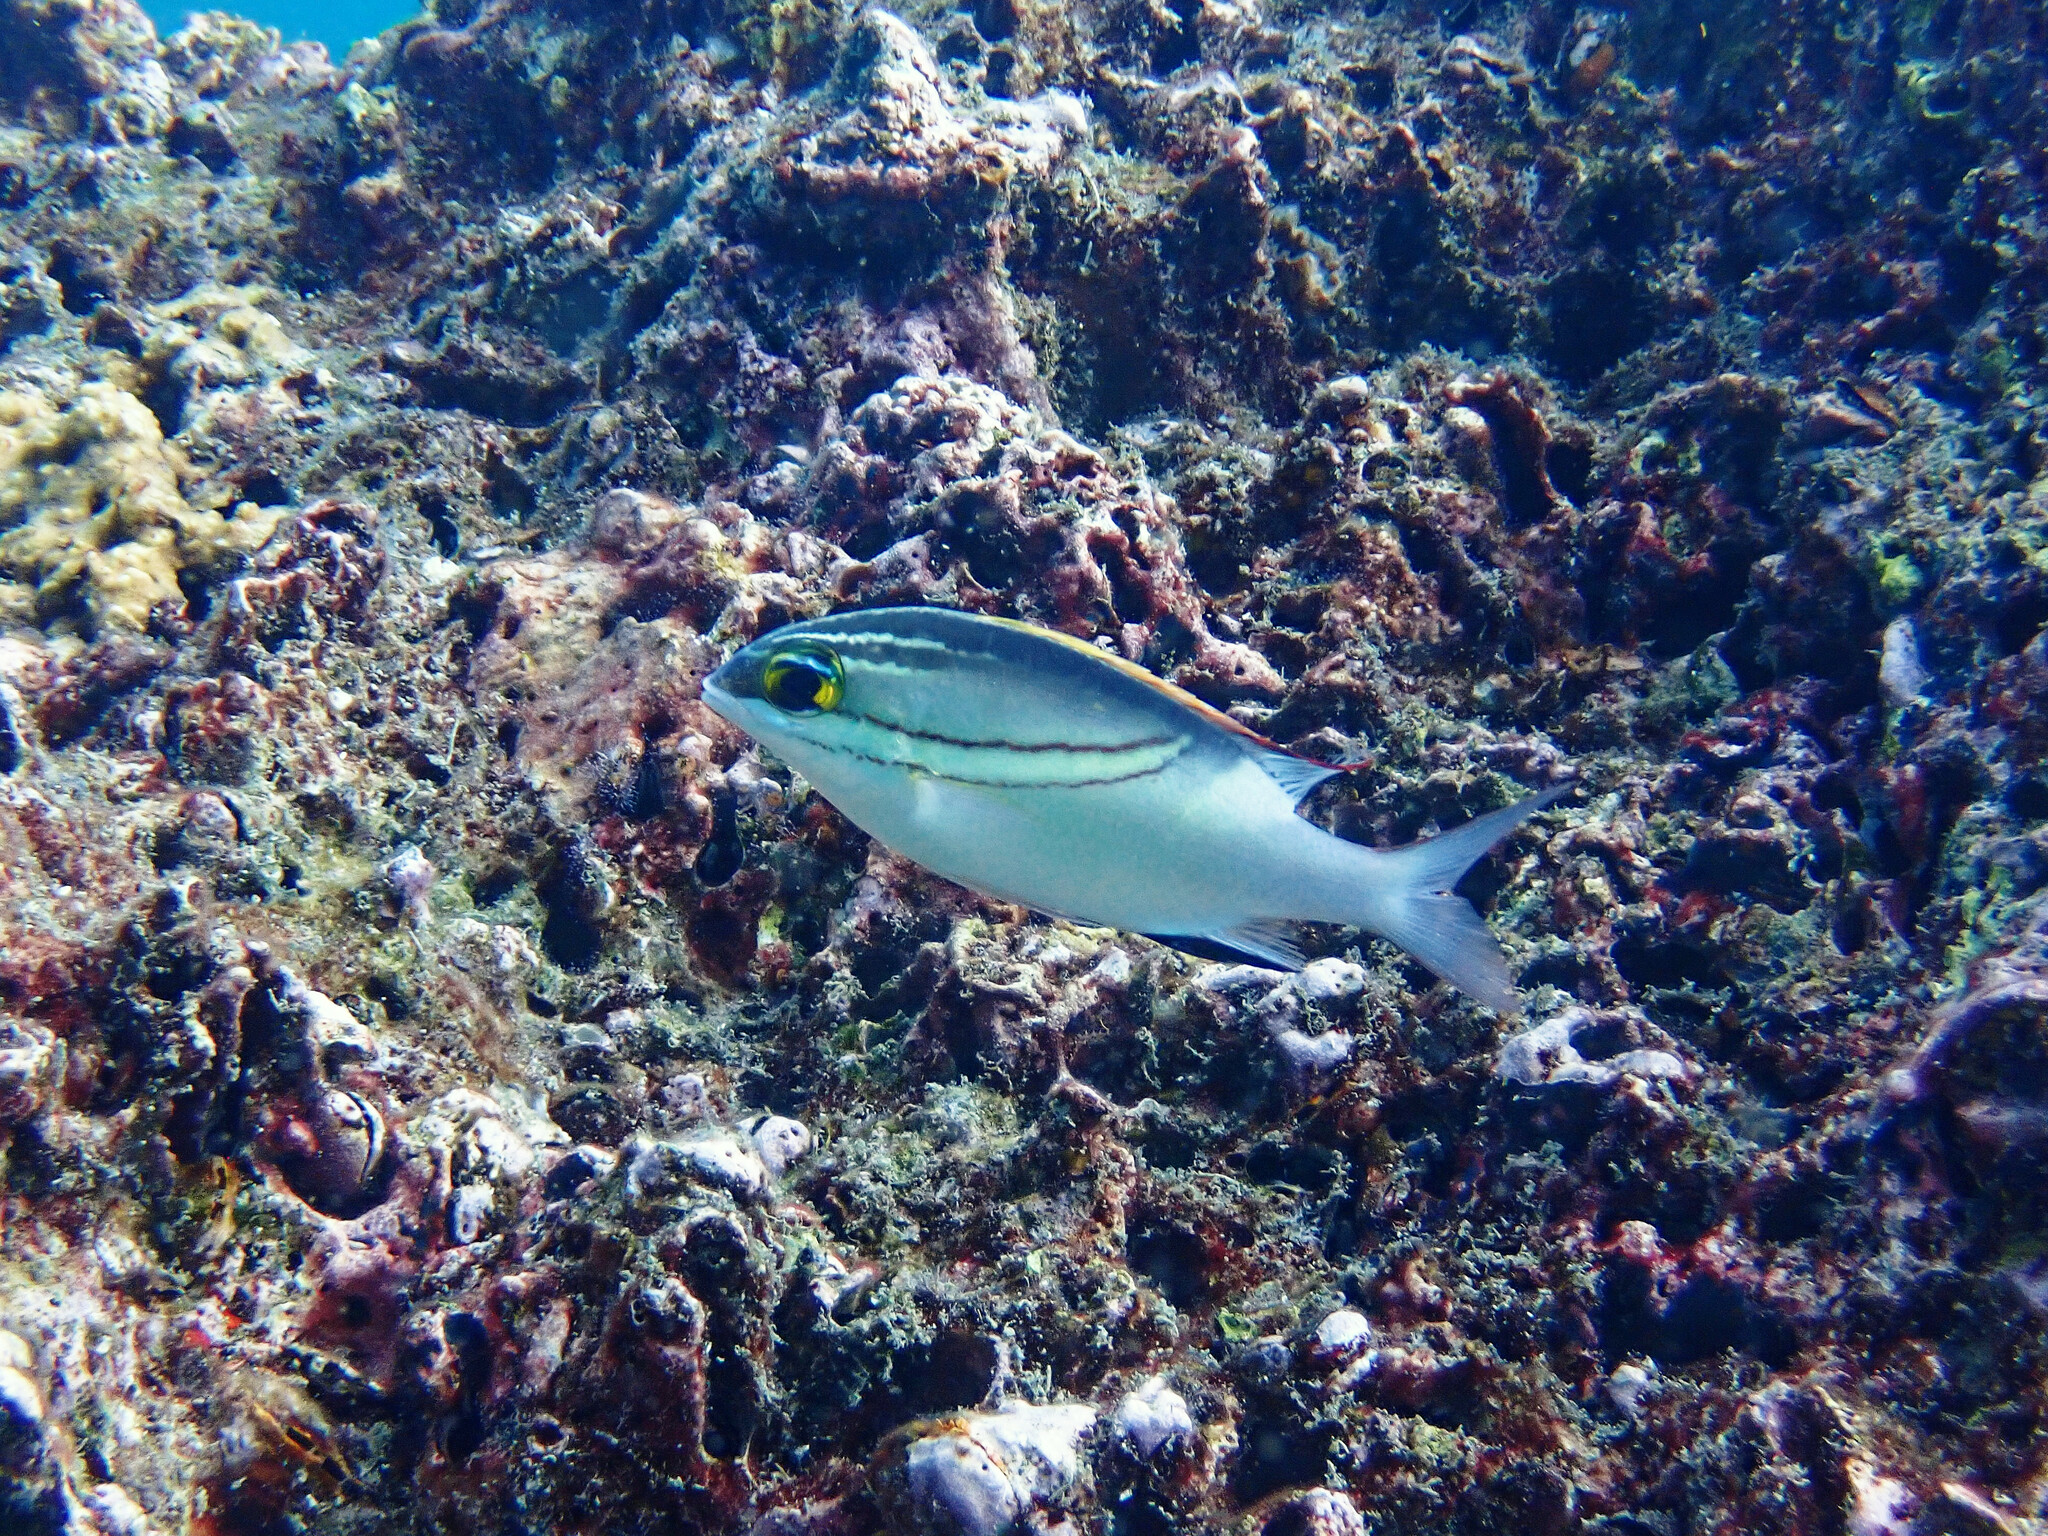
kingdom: Animalia
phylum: Chordata
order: Perciformes
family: Nemipteridae
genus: Scolopsis
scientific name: Scolopsis bilineata
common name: Two-lined monocle bream
